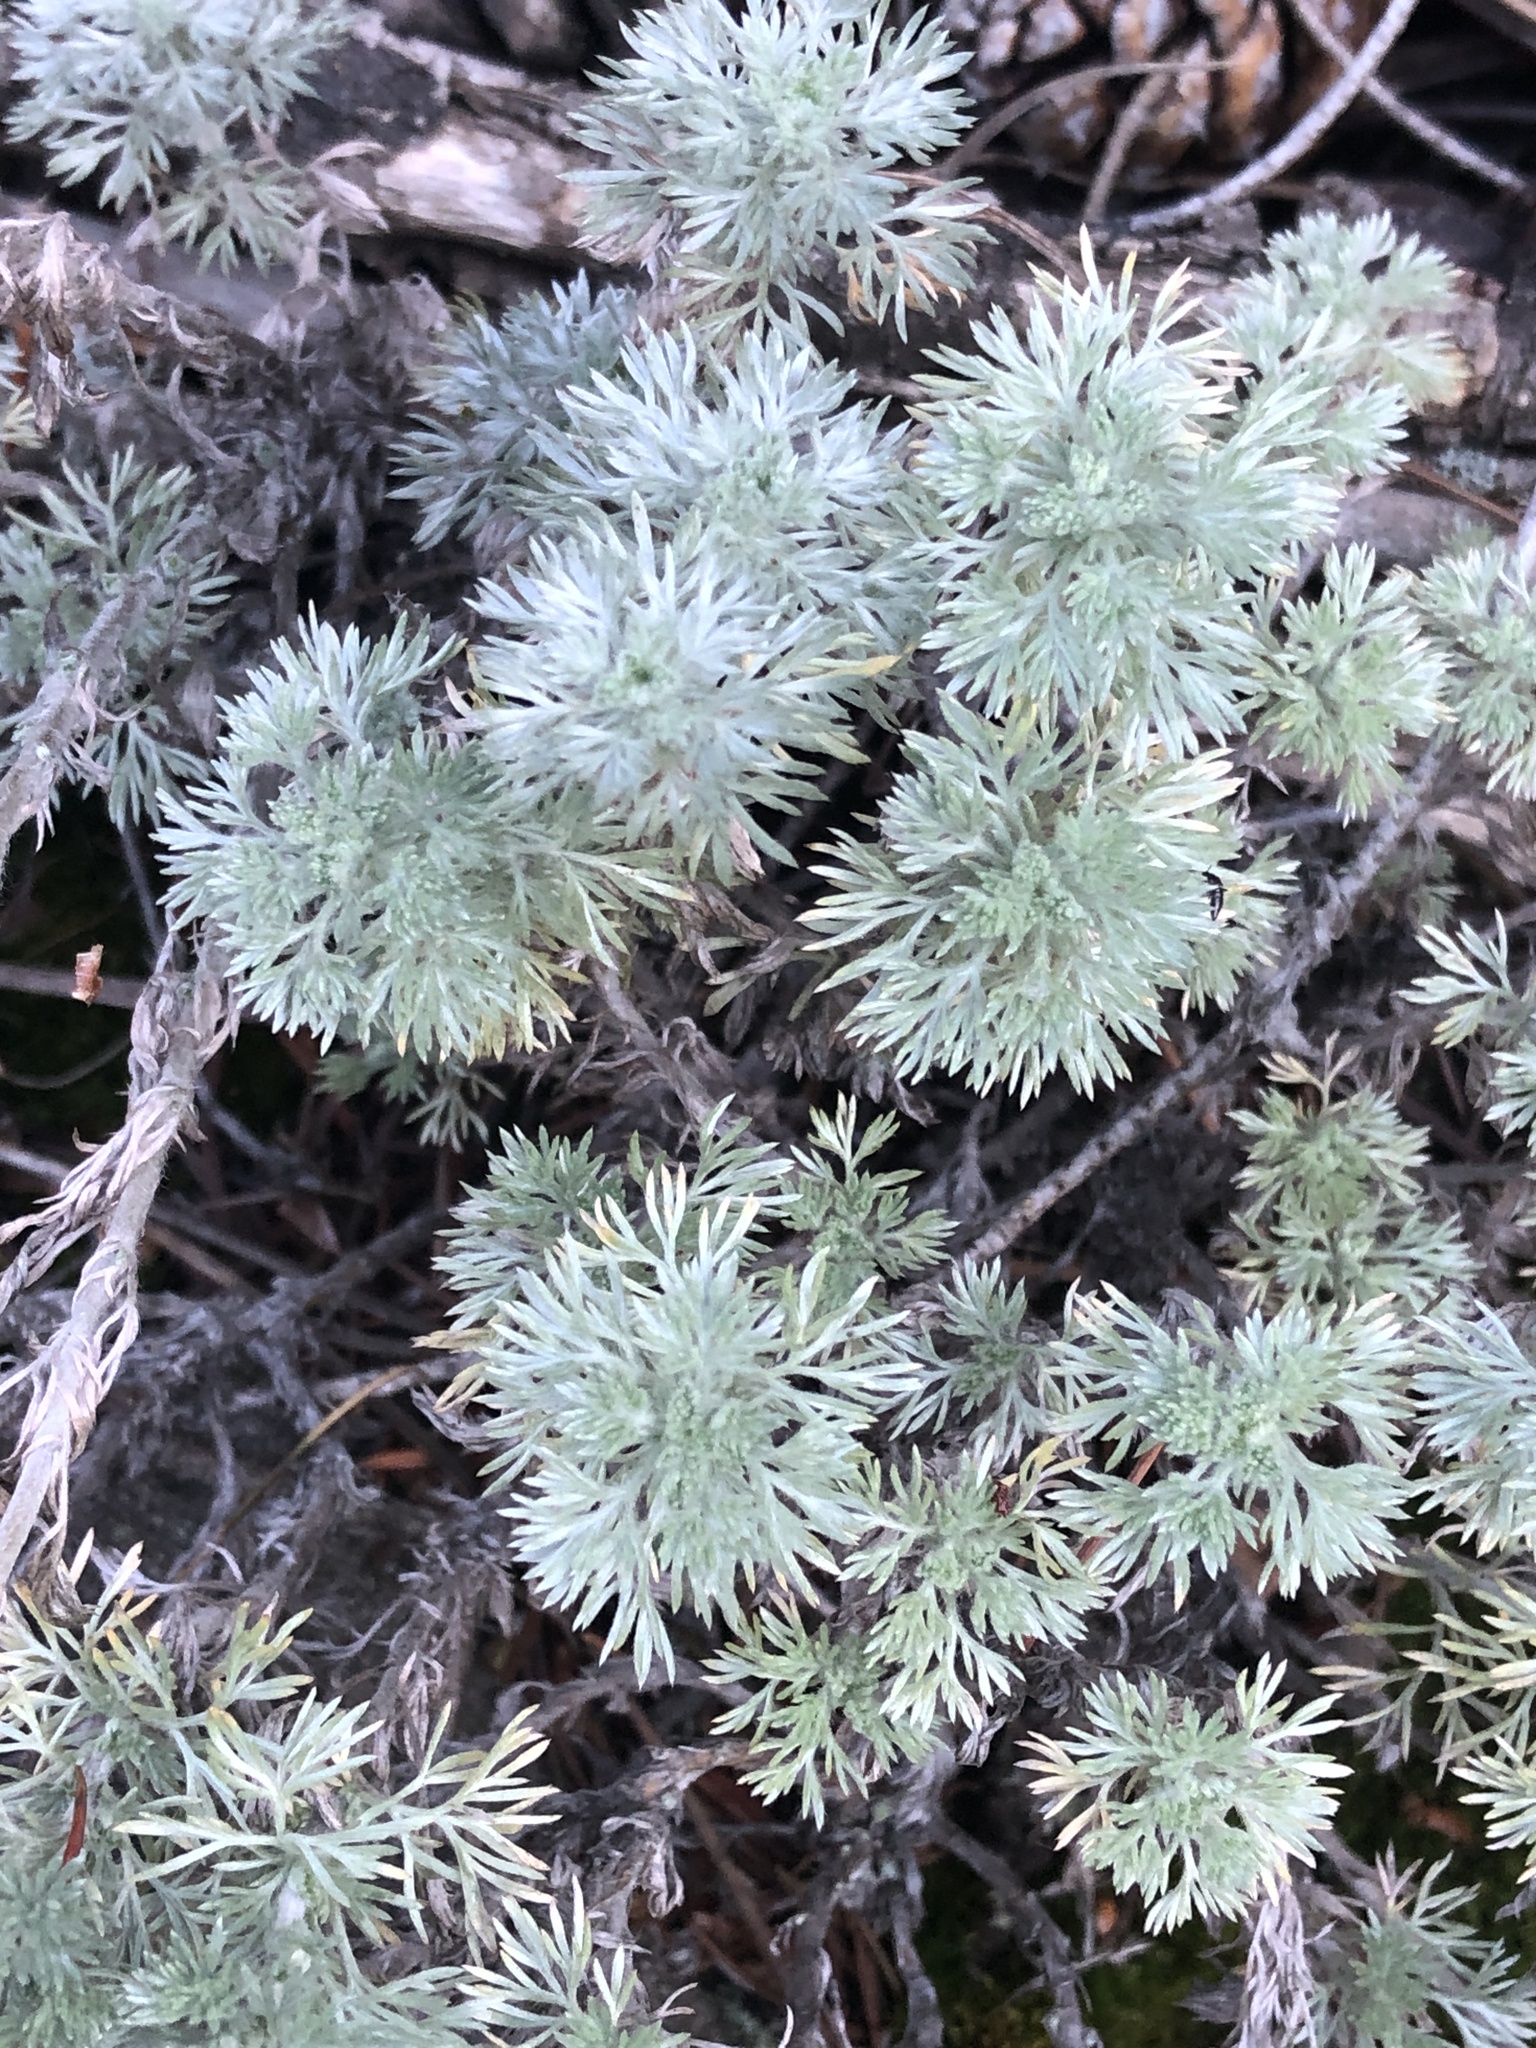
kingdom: Plantae
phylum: Tracheophyta
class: Magnoliopsida
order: Asterales
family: Asteraceae
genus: Artemisia
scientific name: Artemisia frigida
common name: Prairie sagewort
